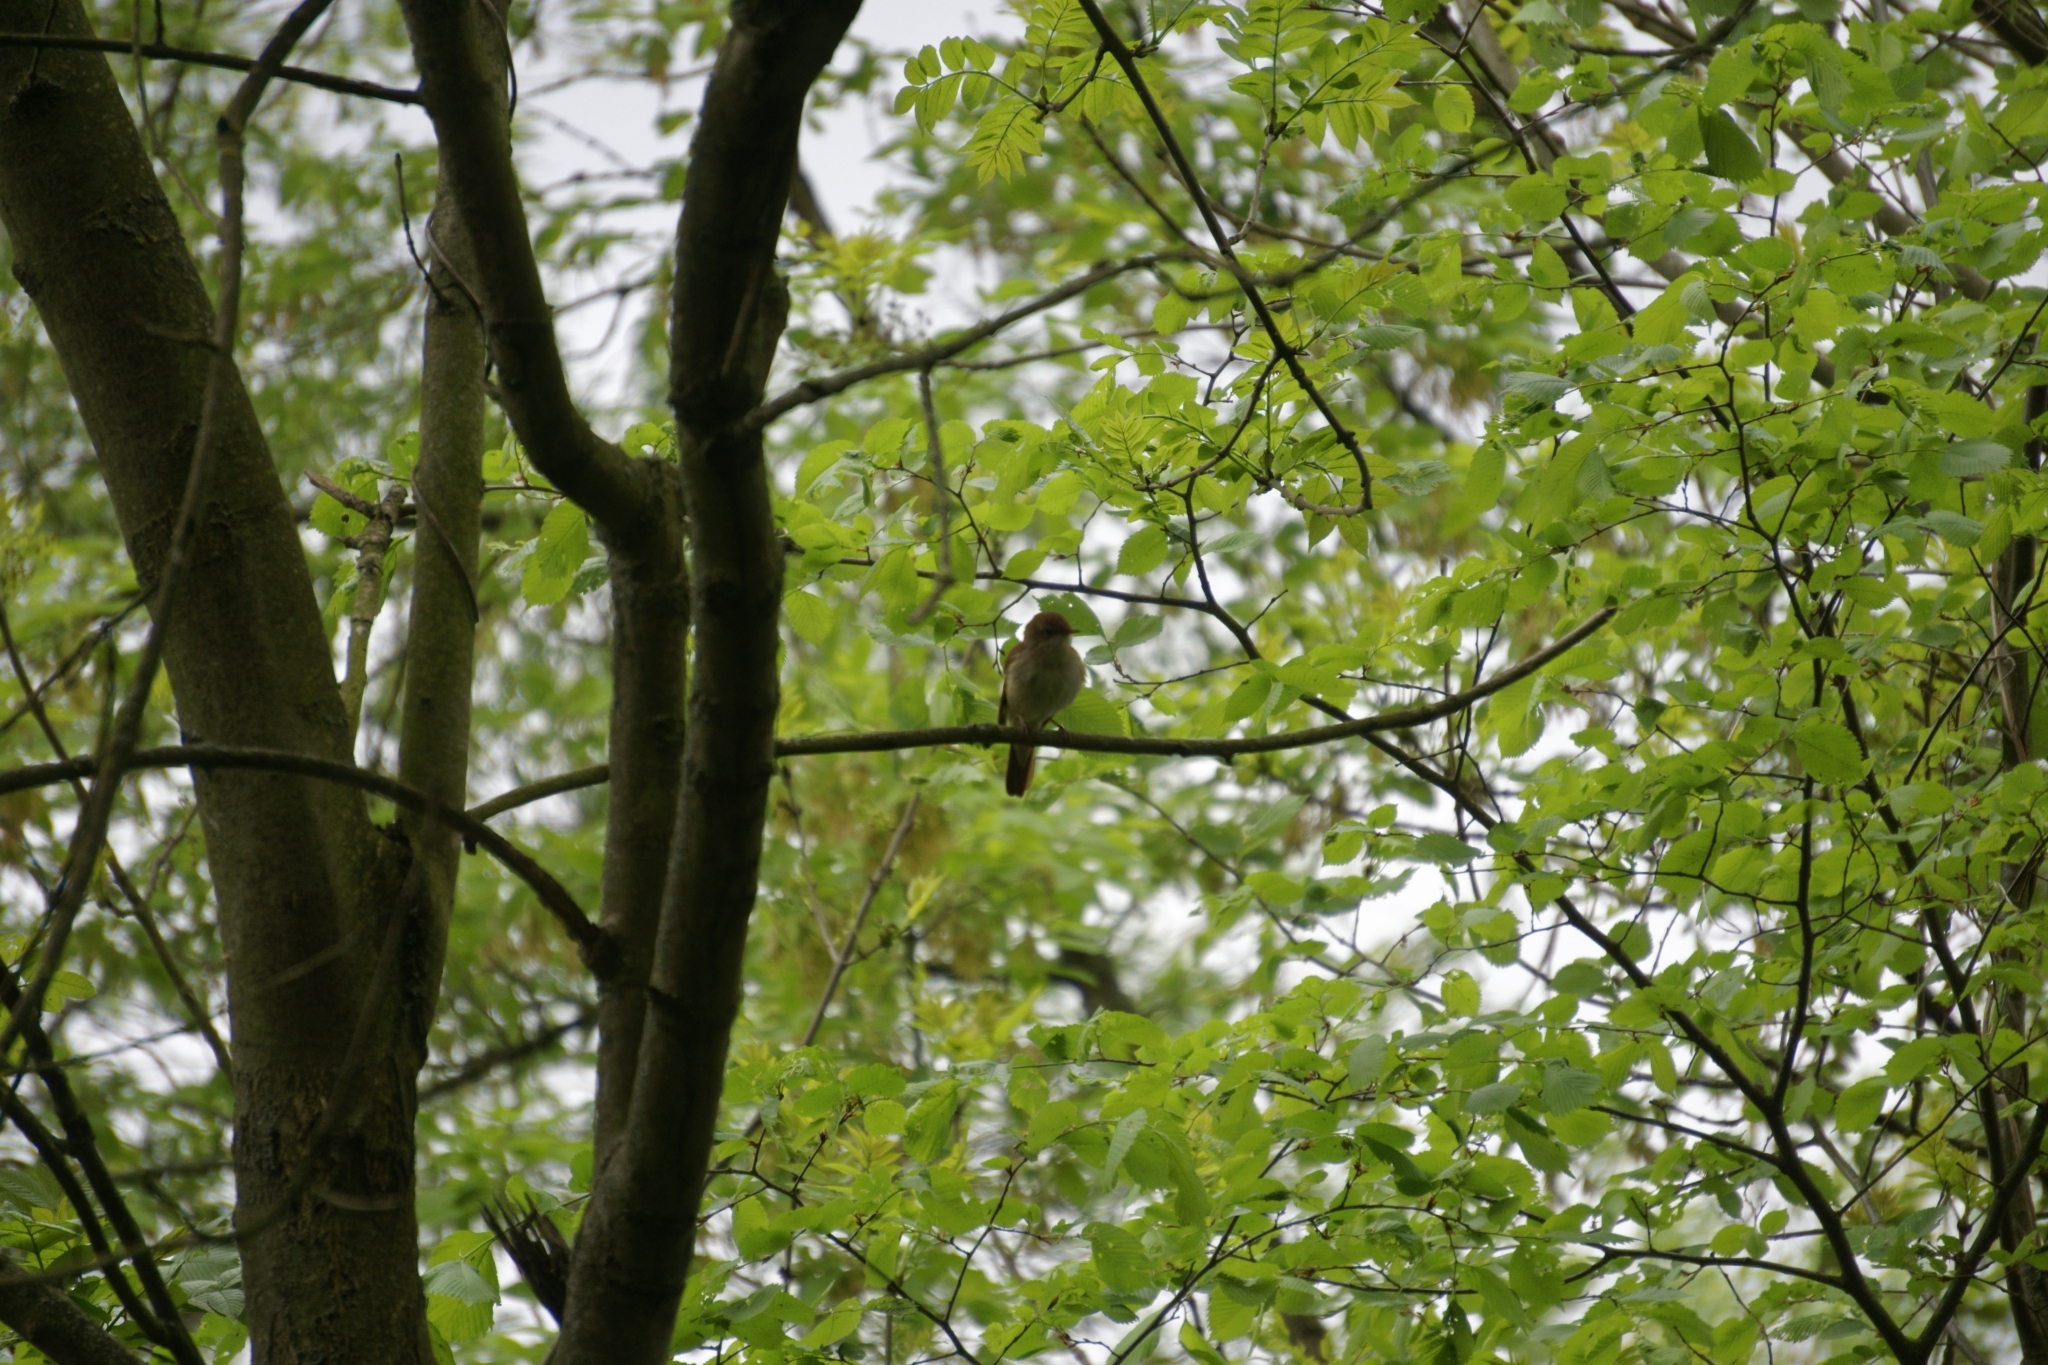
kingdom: Animalia
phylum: Chordata
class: Aves
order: Passeriformes
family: Muscicapidae
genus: Luscinia
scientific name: Luscinia megarhynchos
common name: Common nightingale
